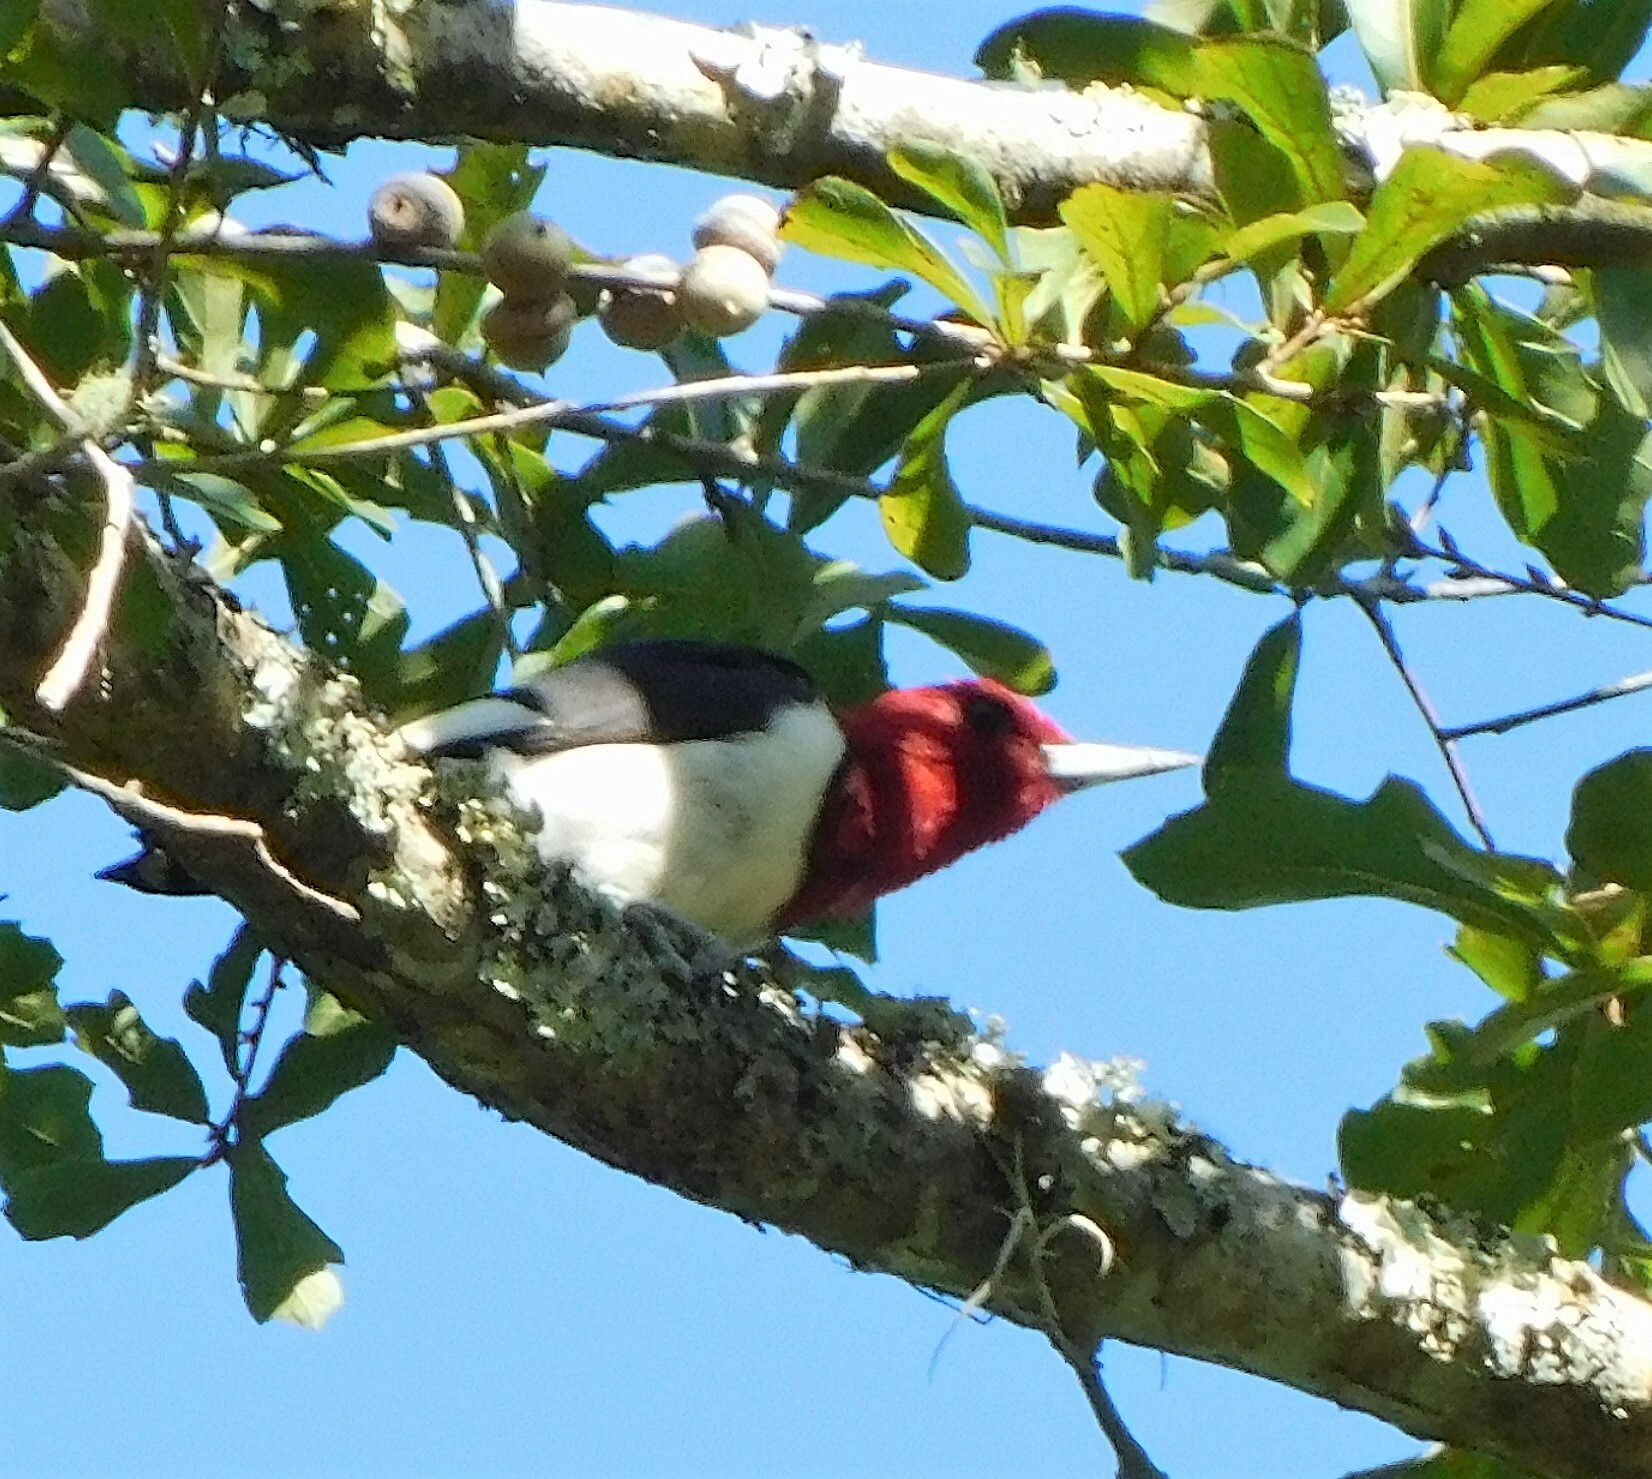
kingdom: Animalia
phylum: Chordata
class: Aves
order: Piciformes
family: Picidae
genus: Melanerpes
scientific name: Melanerpes erythrocephalus
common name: Red-headed woodpecker
